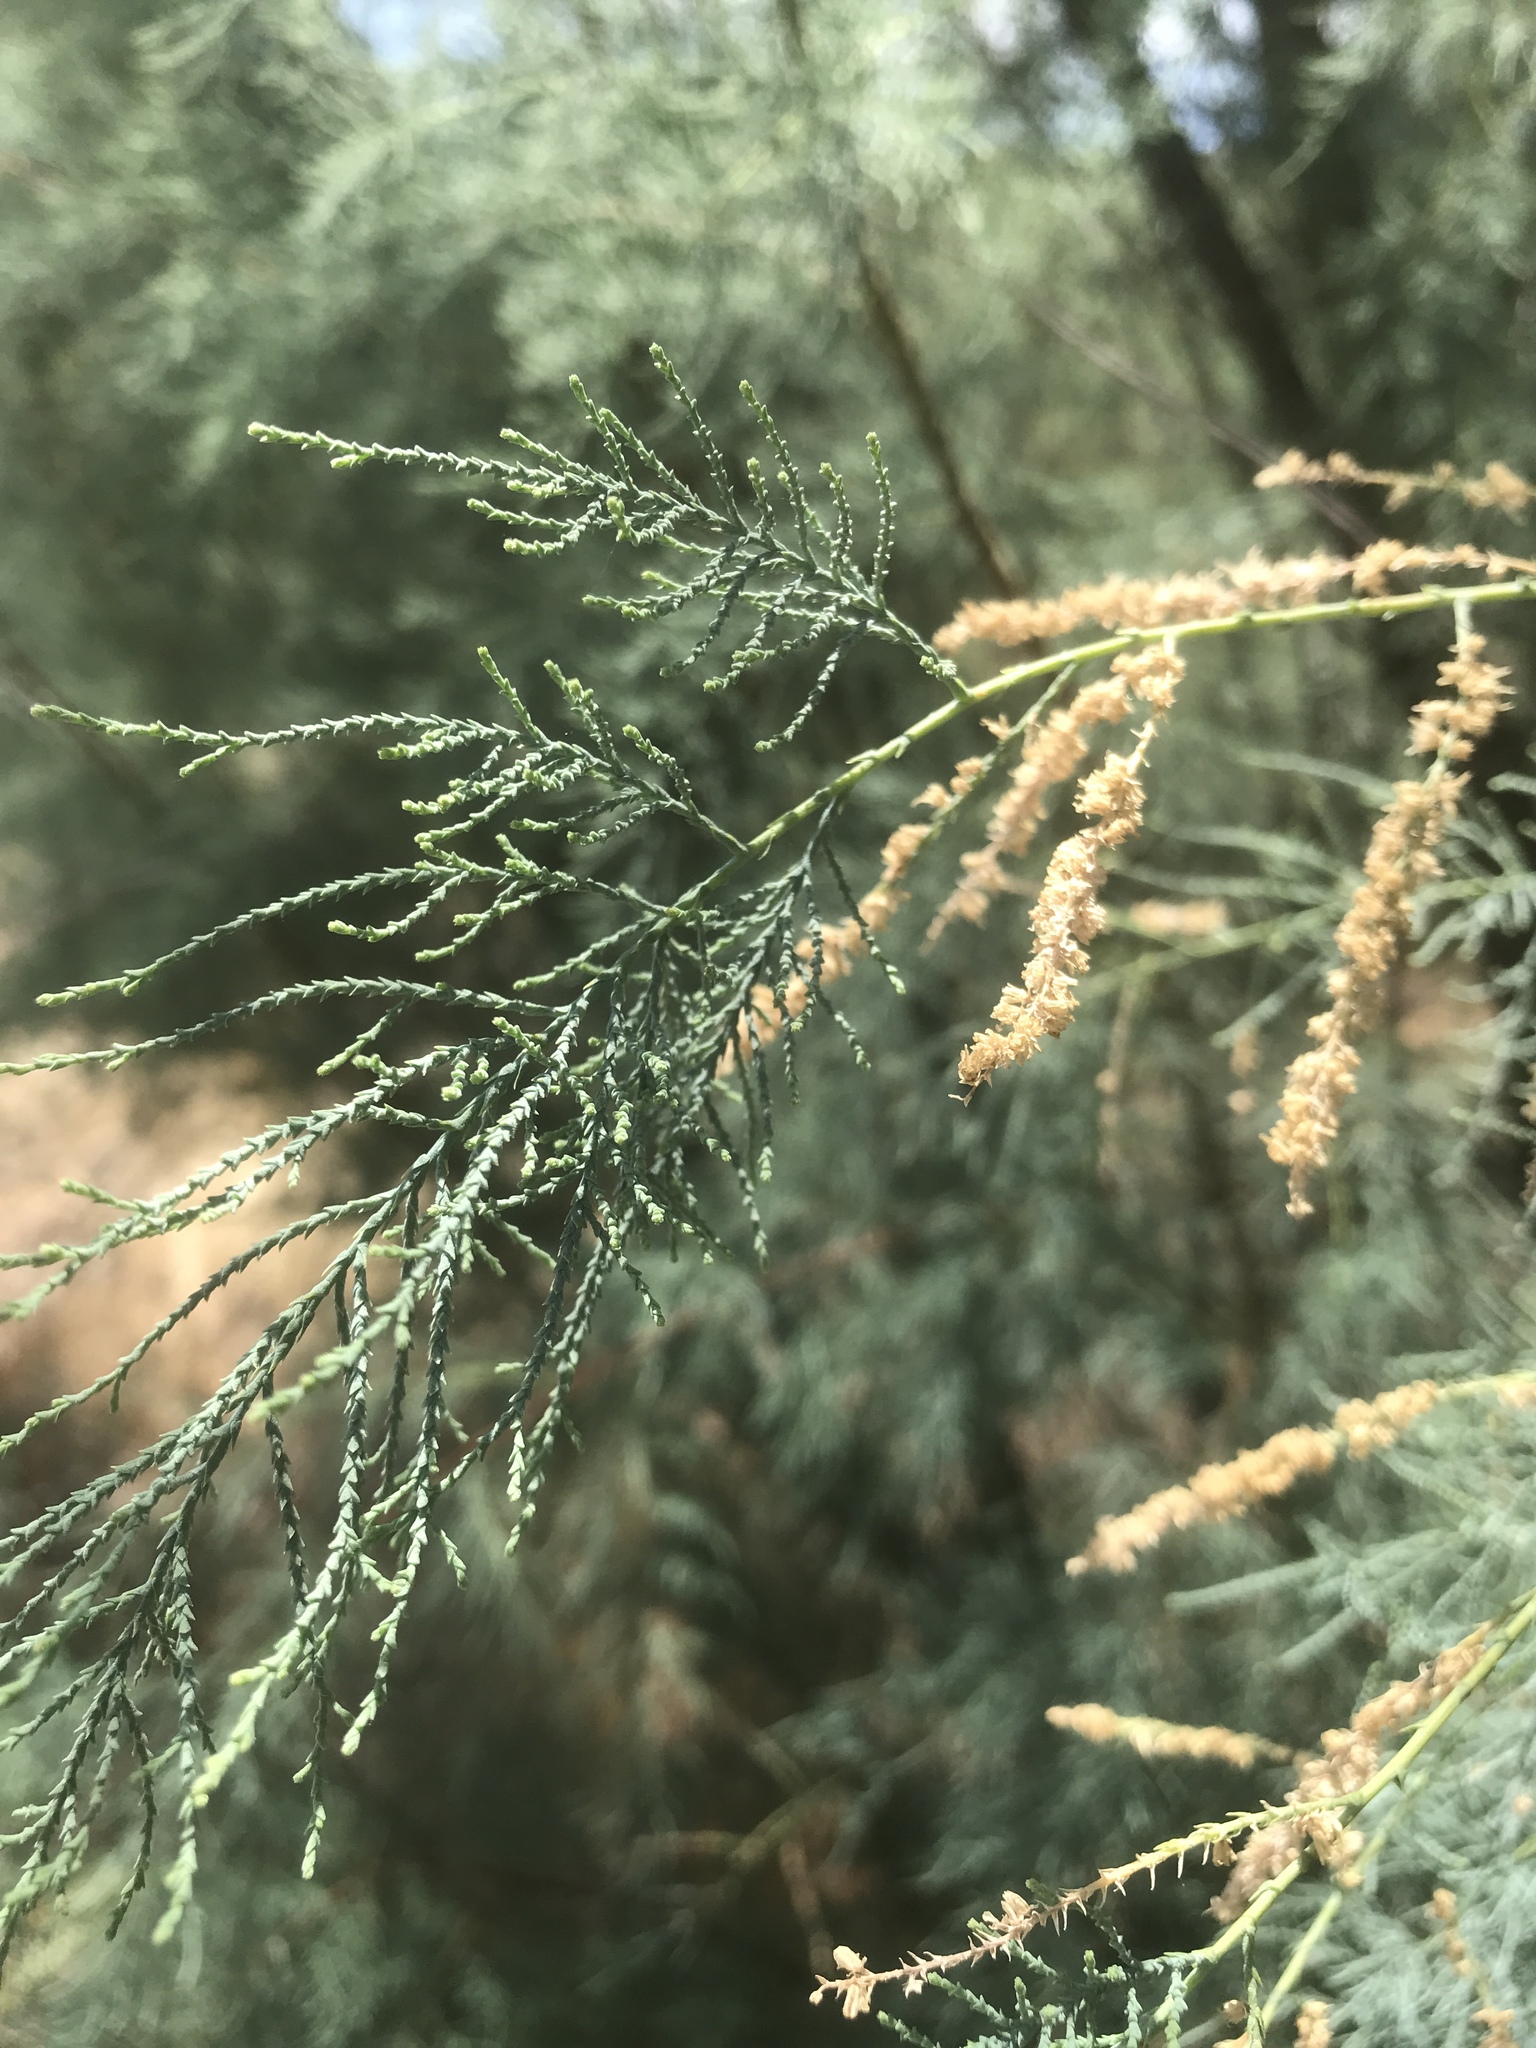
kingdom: Plantae
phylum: Tracheophyta
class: Magnoliopsida
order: Caryophyllales
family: Tamaricaceae
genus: Tamarix
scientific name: Tamarix
